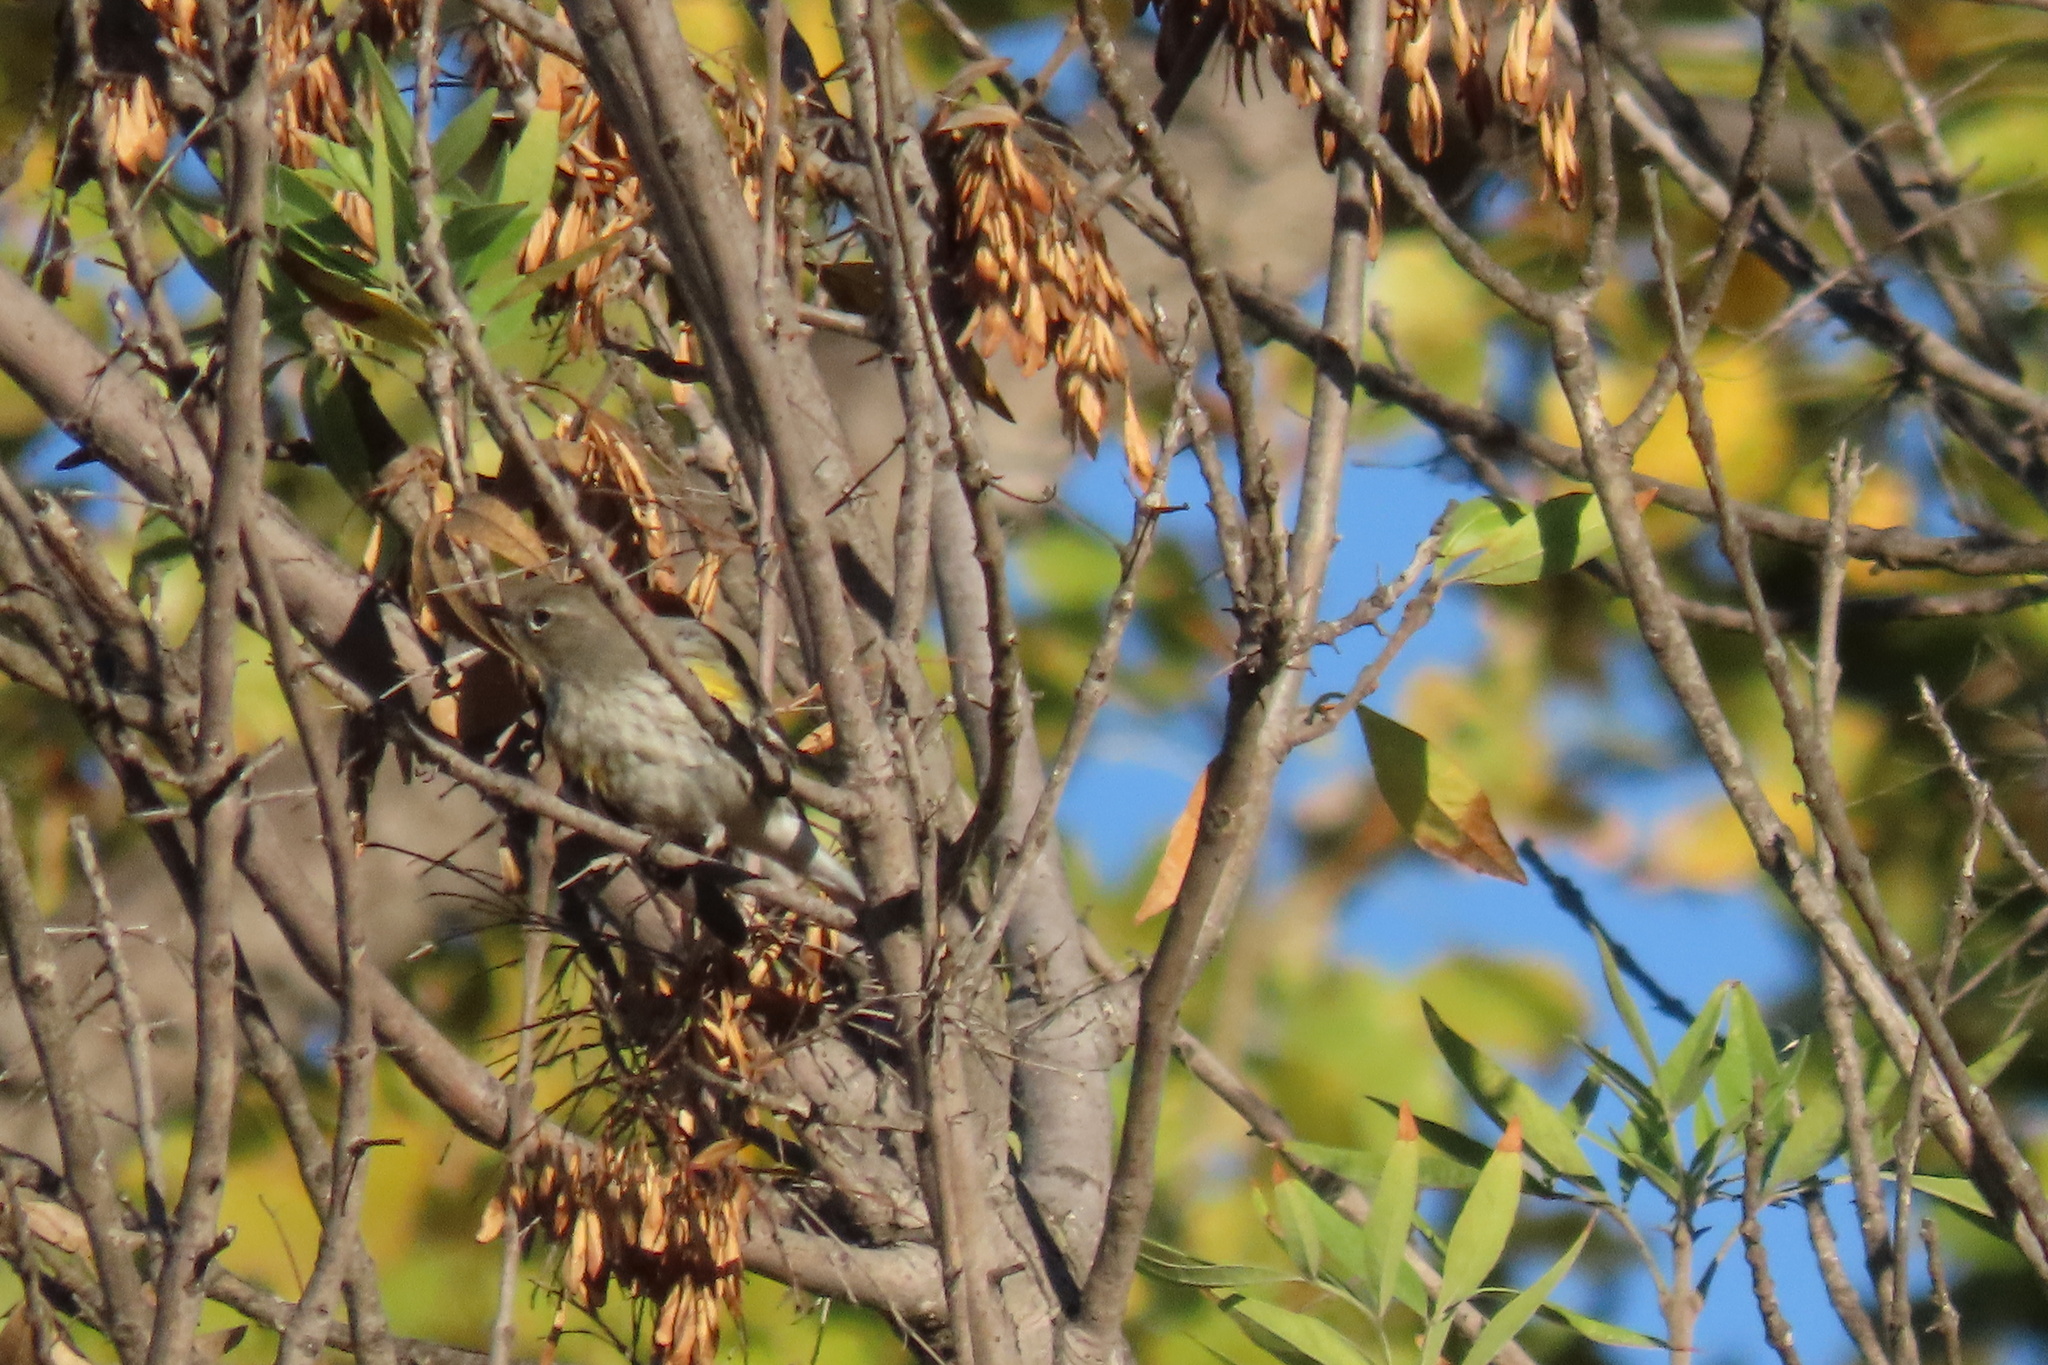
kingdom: Animalia
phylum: Chordata
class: Aves
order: Passeriformes
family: Parulidae
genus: Setophaga
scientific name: Setophaga coronata
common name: Myrtle warbler
